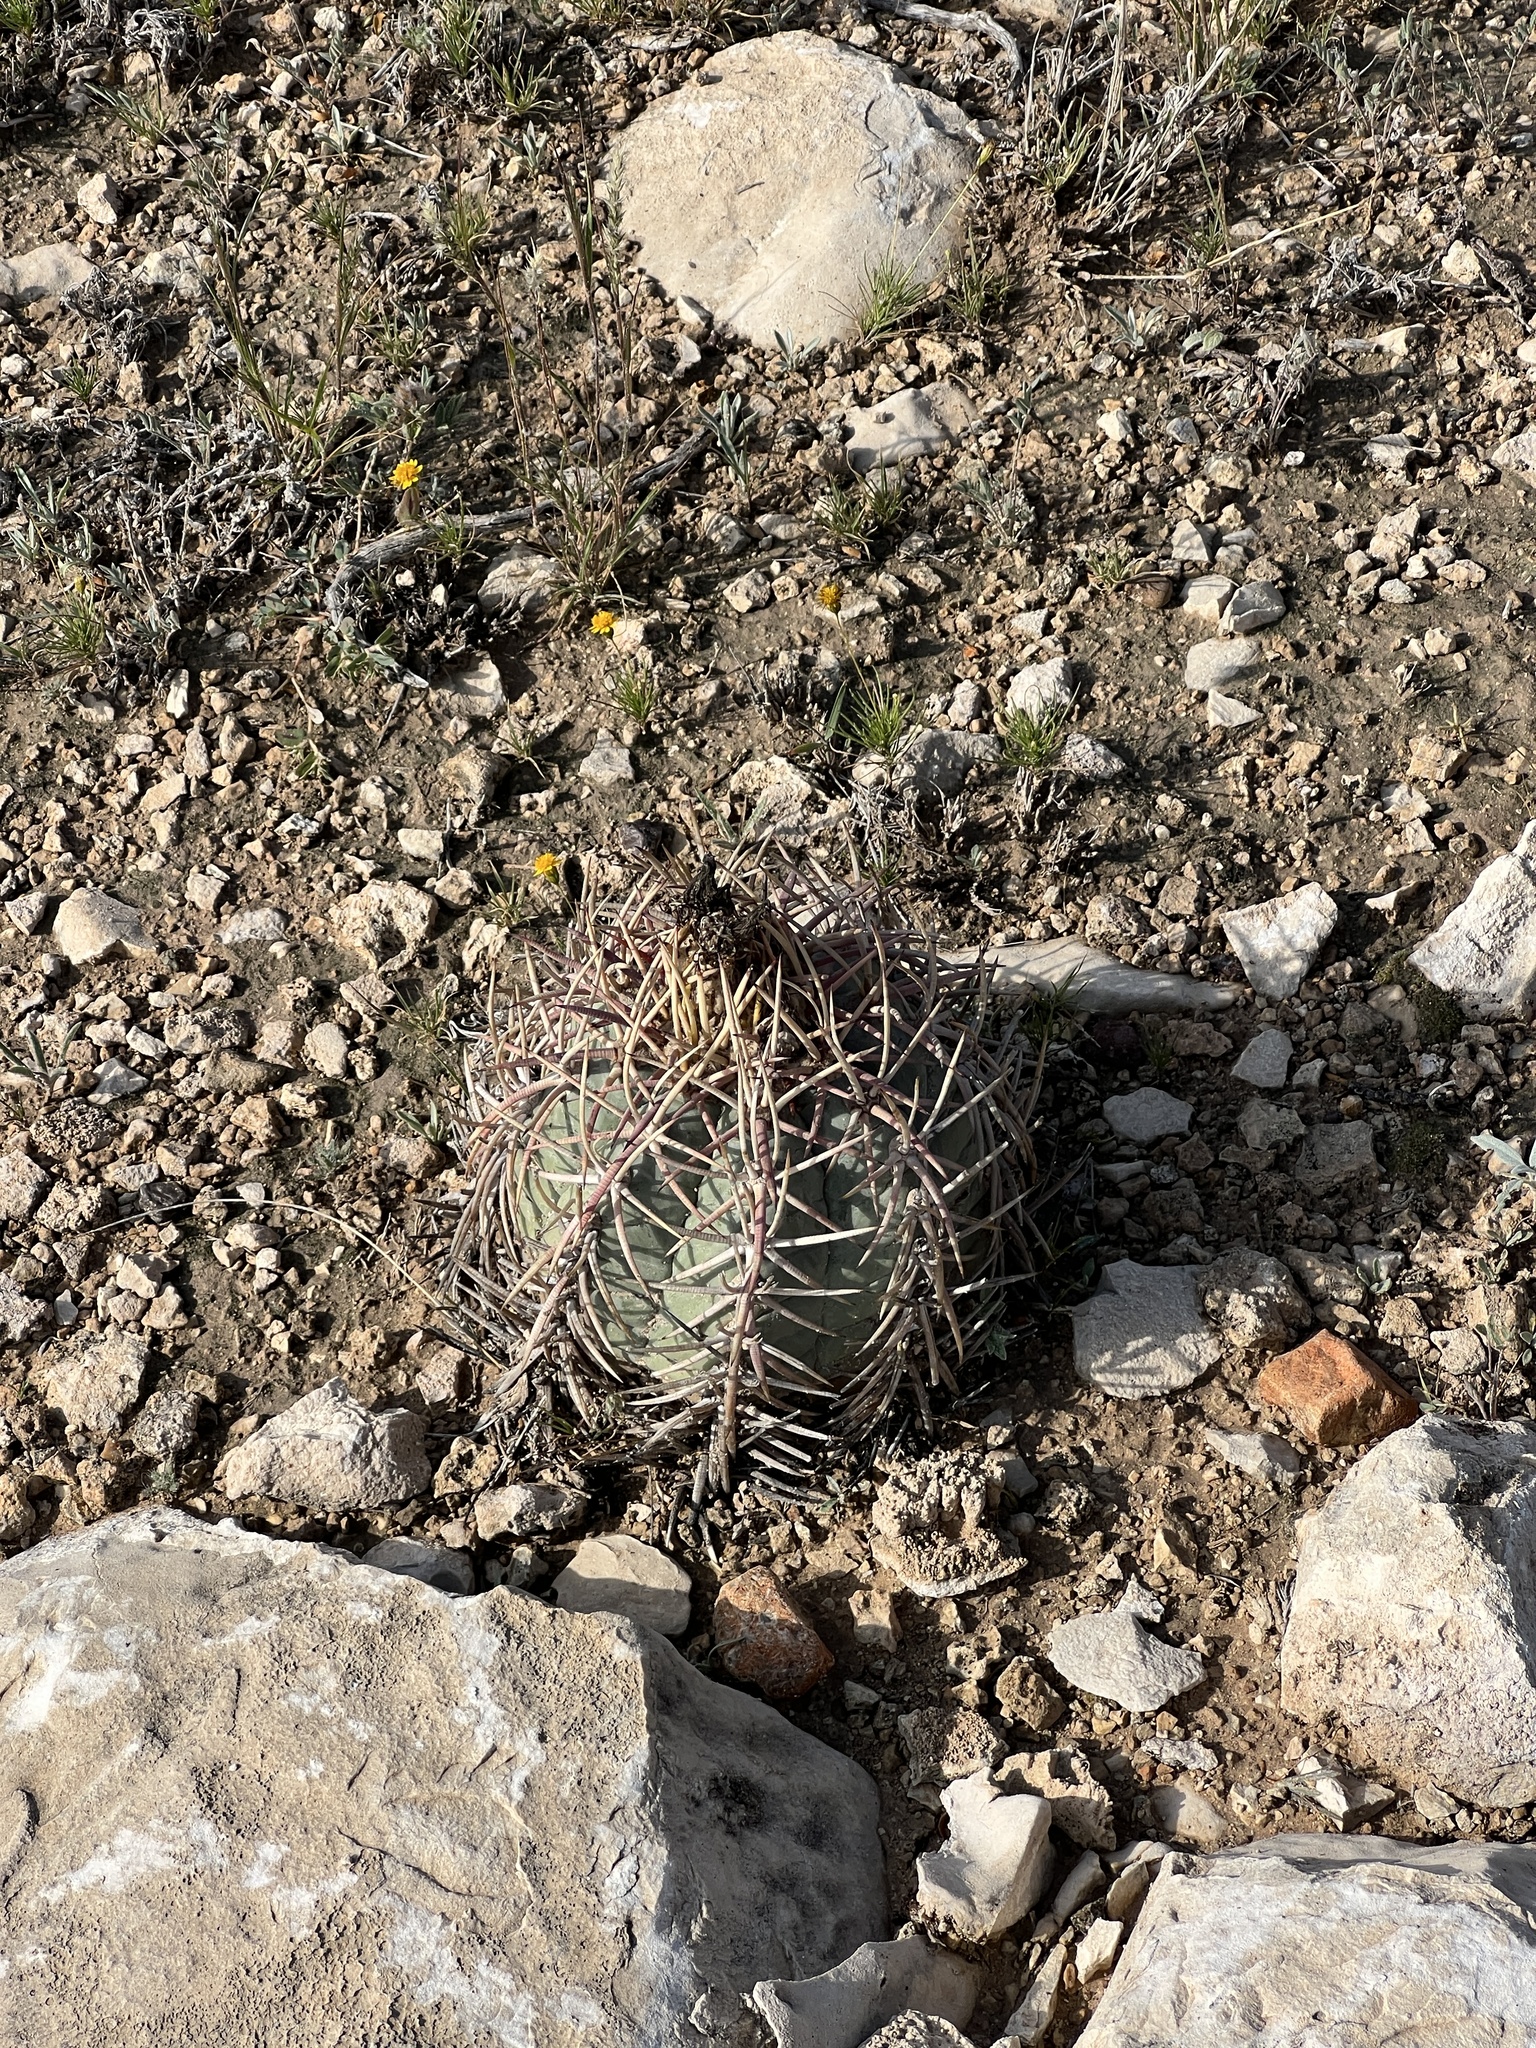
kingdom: Plantae
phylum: Tracheophyta
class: Magnoliopsida
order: Caryophyllales
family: Cactaceae
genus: Echinocactus
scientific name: Echinocactus horizonthalonius
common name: Devilshead
